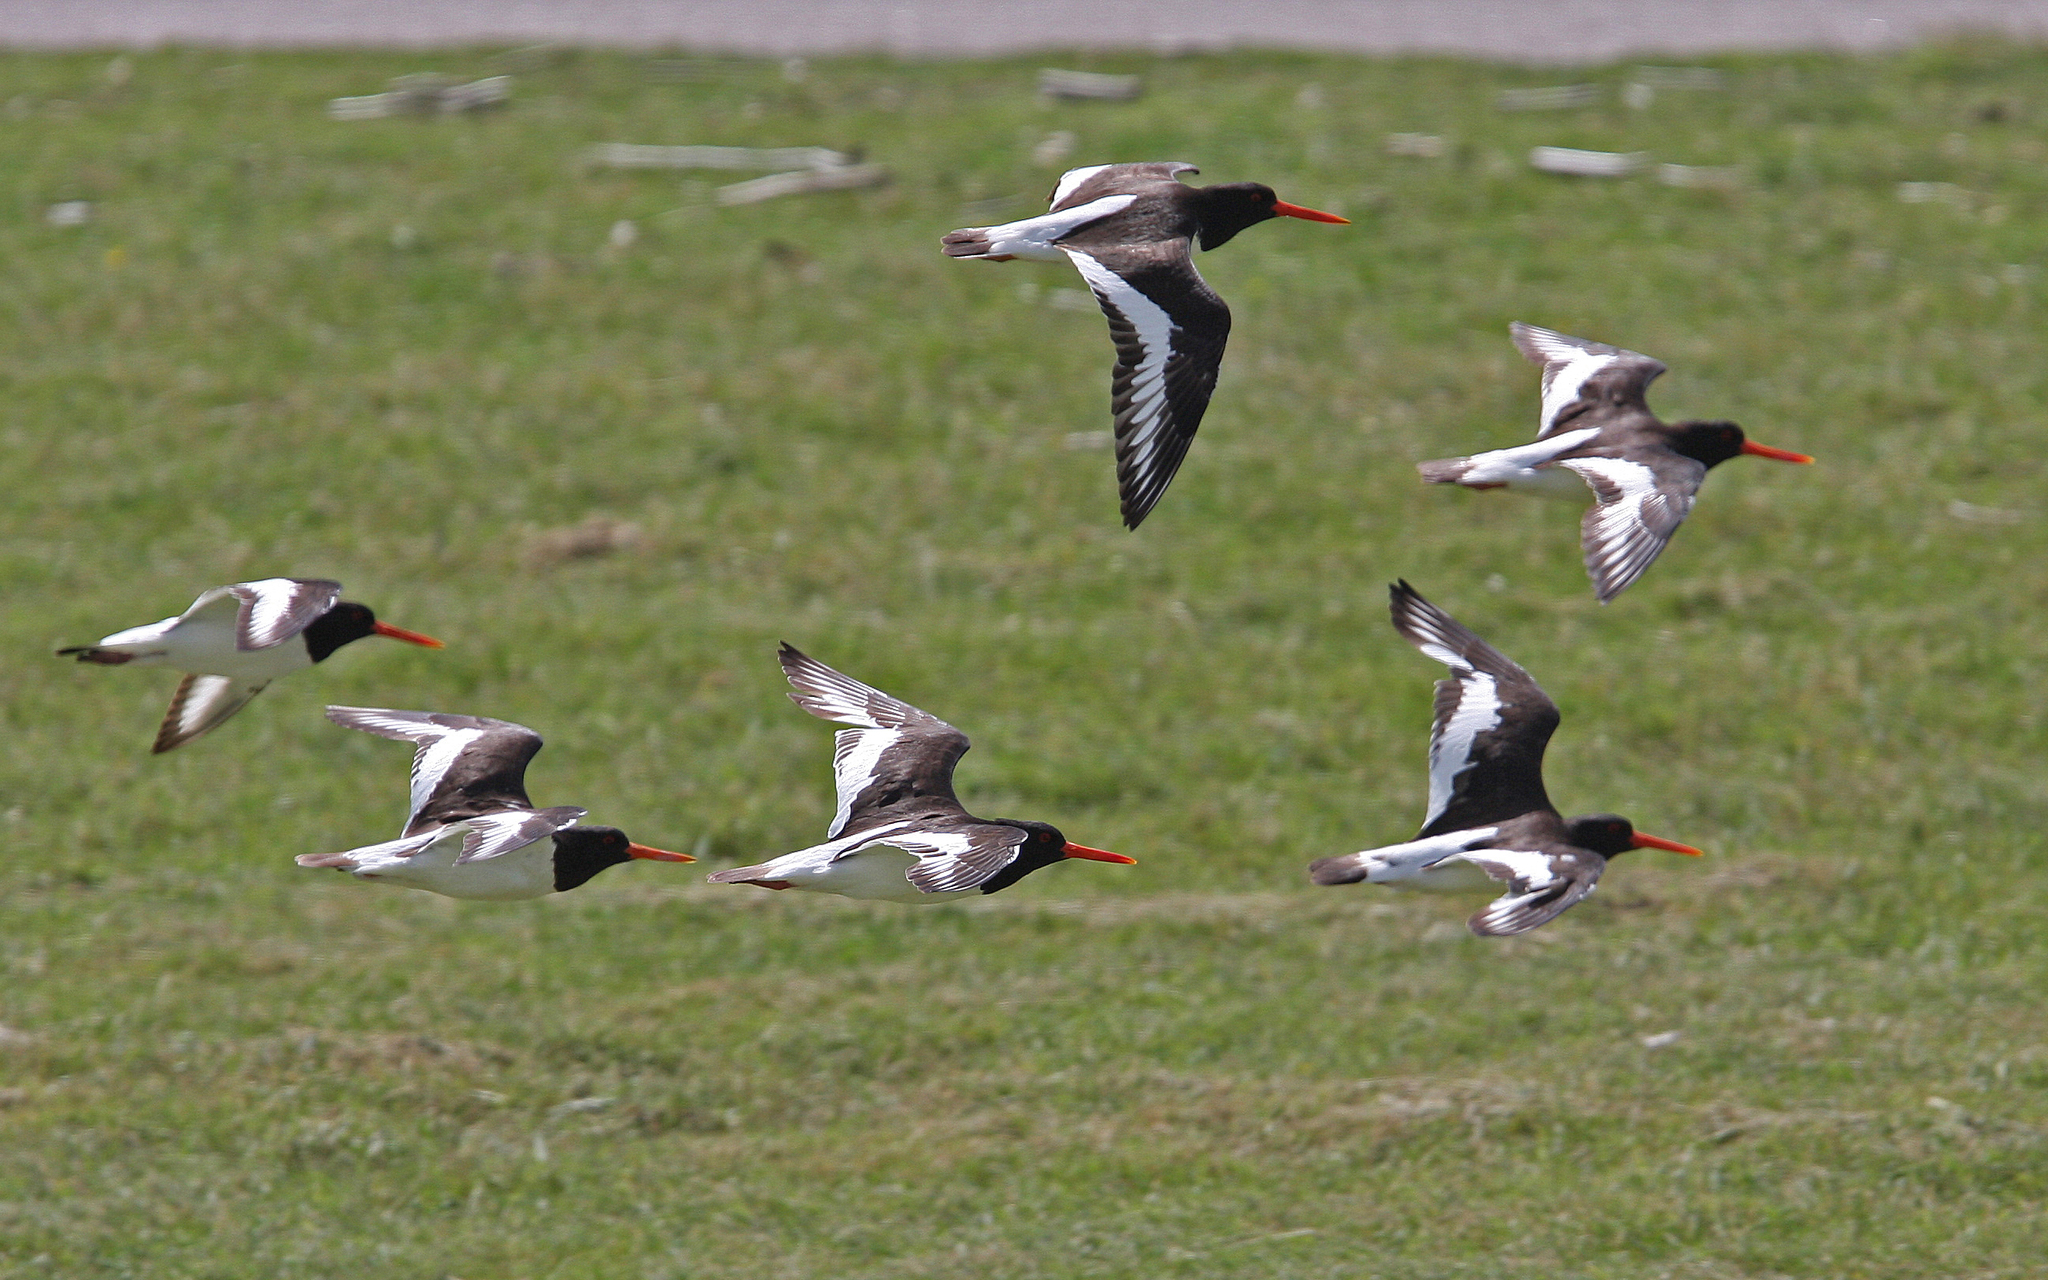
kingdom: Animalia
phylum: Chordata
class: Aves
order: Charadriiformes
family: Haematopodidae
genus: Haematopus
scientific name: Haematopus ostralegus
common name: Eurasian oystercatcher
